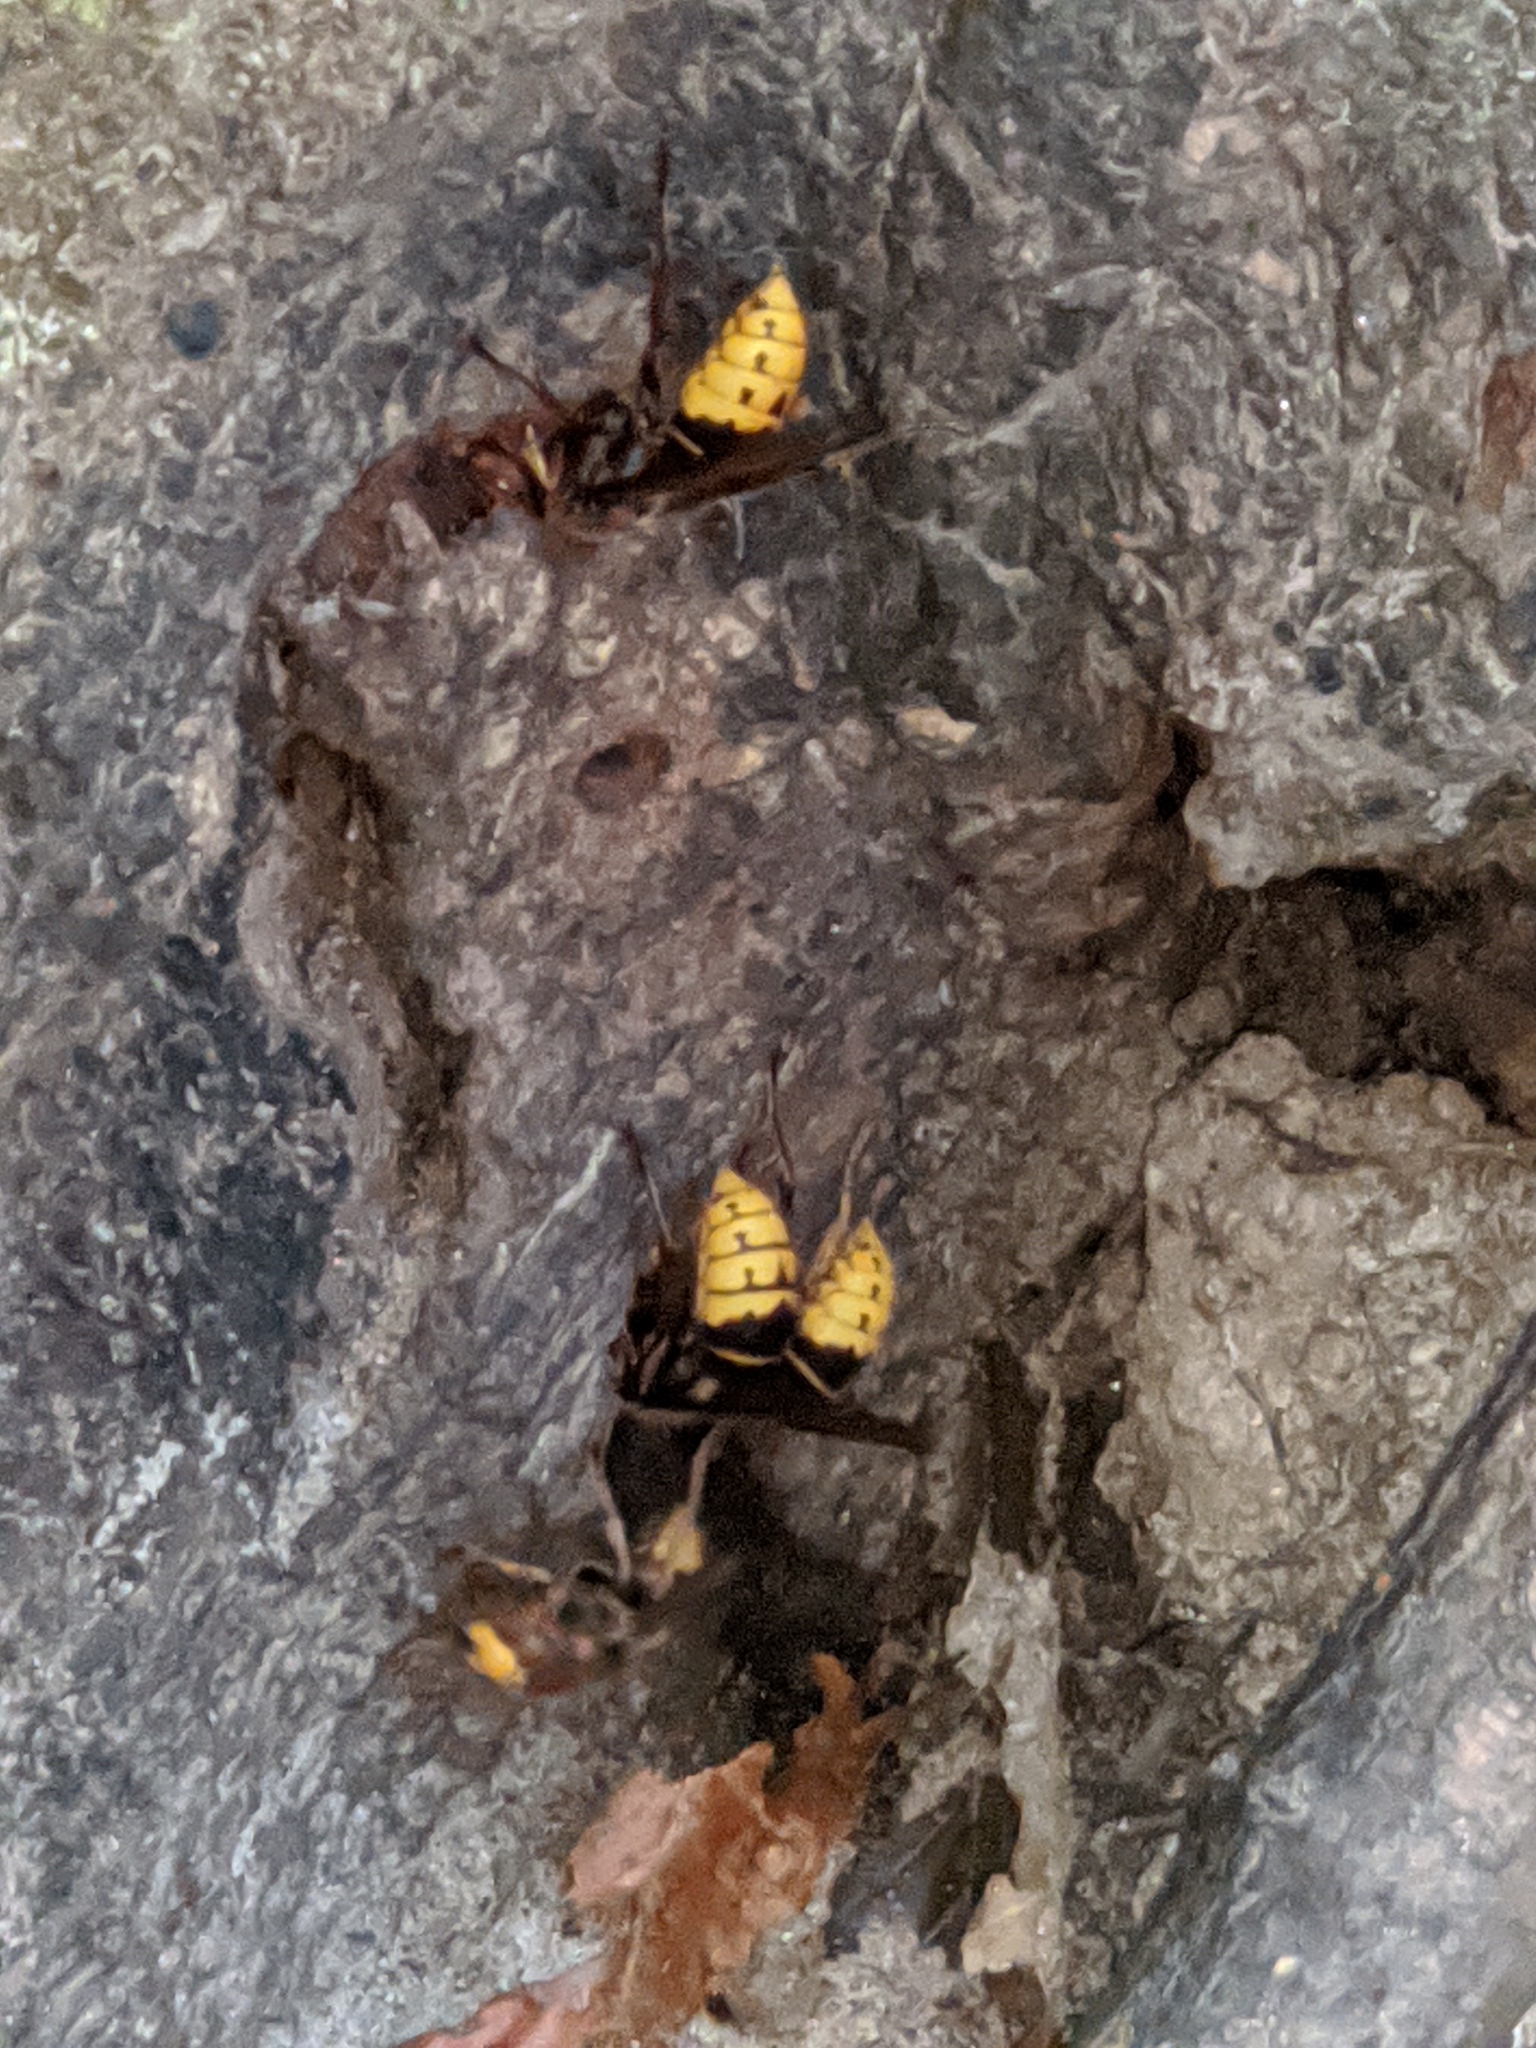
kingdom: Animalia
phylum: Arthropoda
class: Insecta
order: Hymenoptera
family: Vespidae
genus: Vespa
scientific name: Vespa crabro
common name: Hornet
